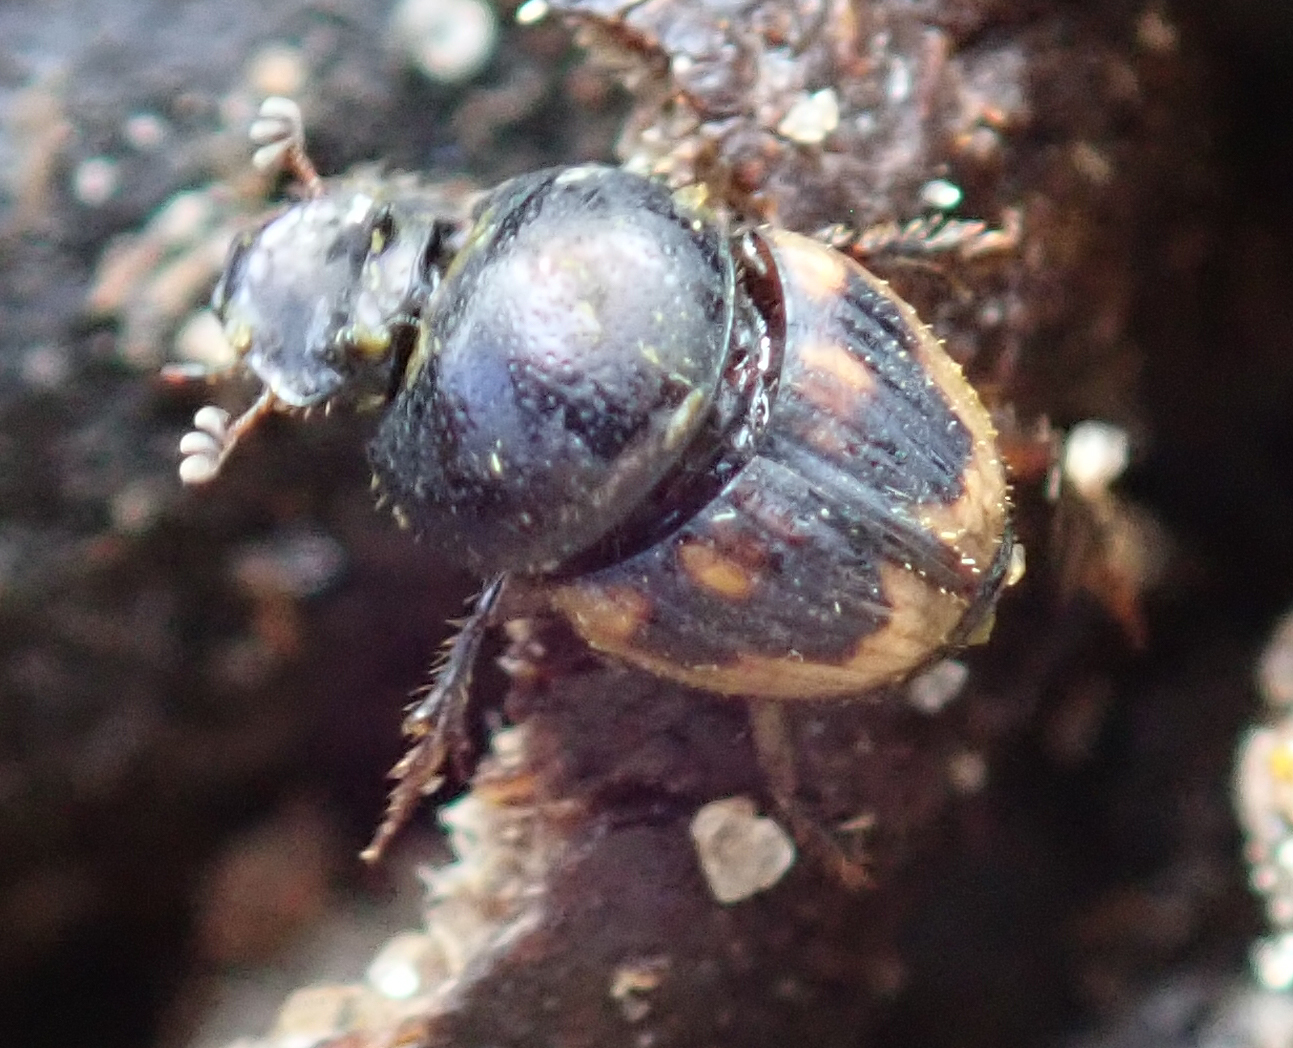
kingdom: Animalia
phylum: Arthropoda
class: Insecta
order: Coleoptera
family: Scarabaeidae
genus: Onthophagus
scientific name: Onthophagus flavolimbatus
